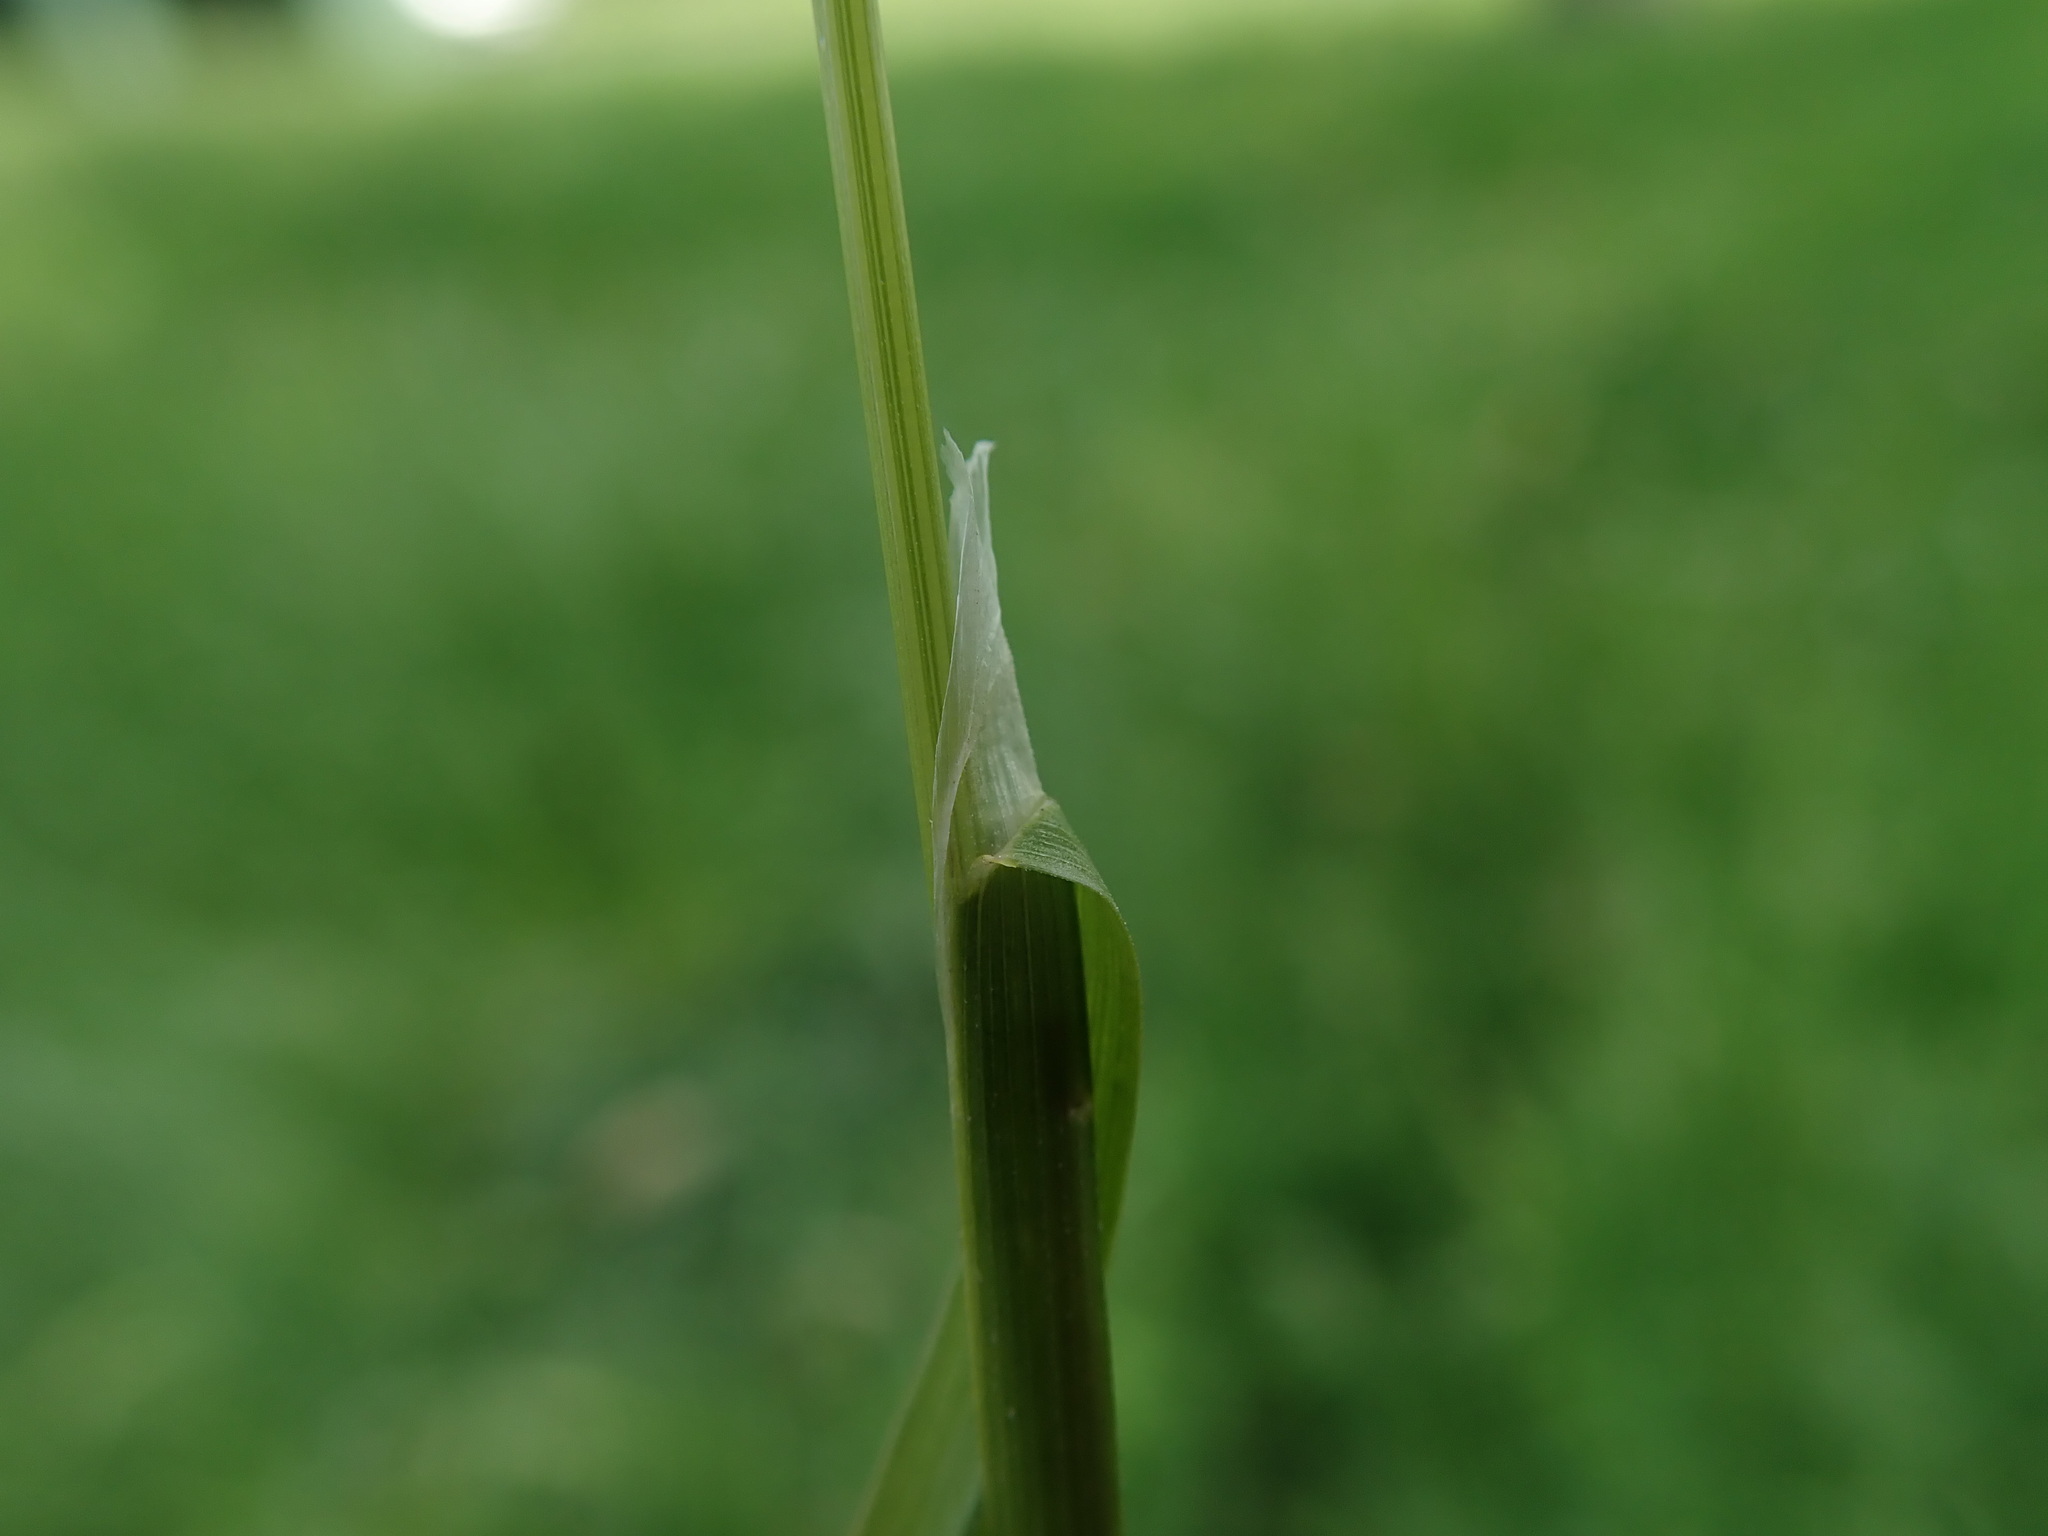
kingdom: Plantae
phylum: Tracheophyta
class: Liliopsida
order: Poales
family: Poaceae
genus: Poa
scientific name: Poa trivialis
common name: Rough bluegrass
